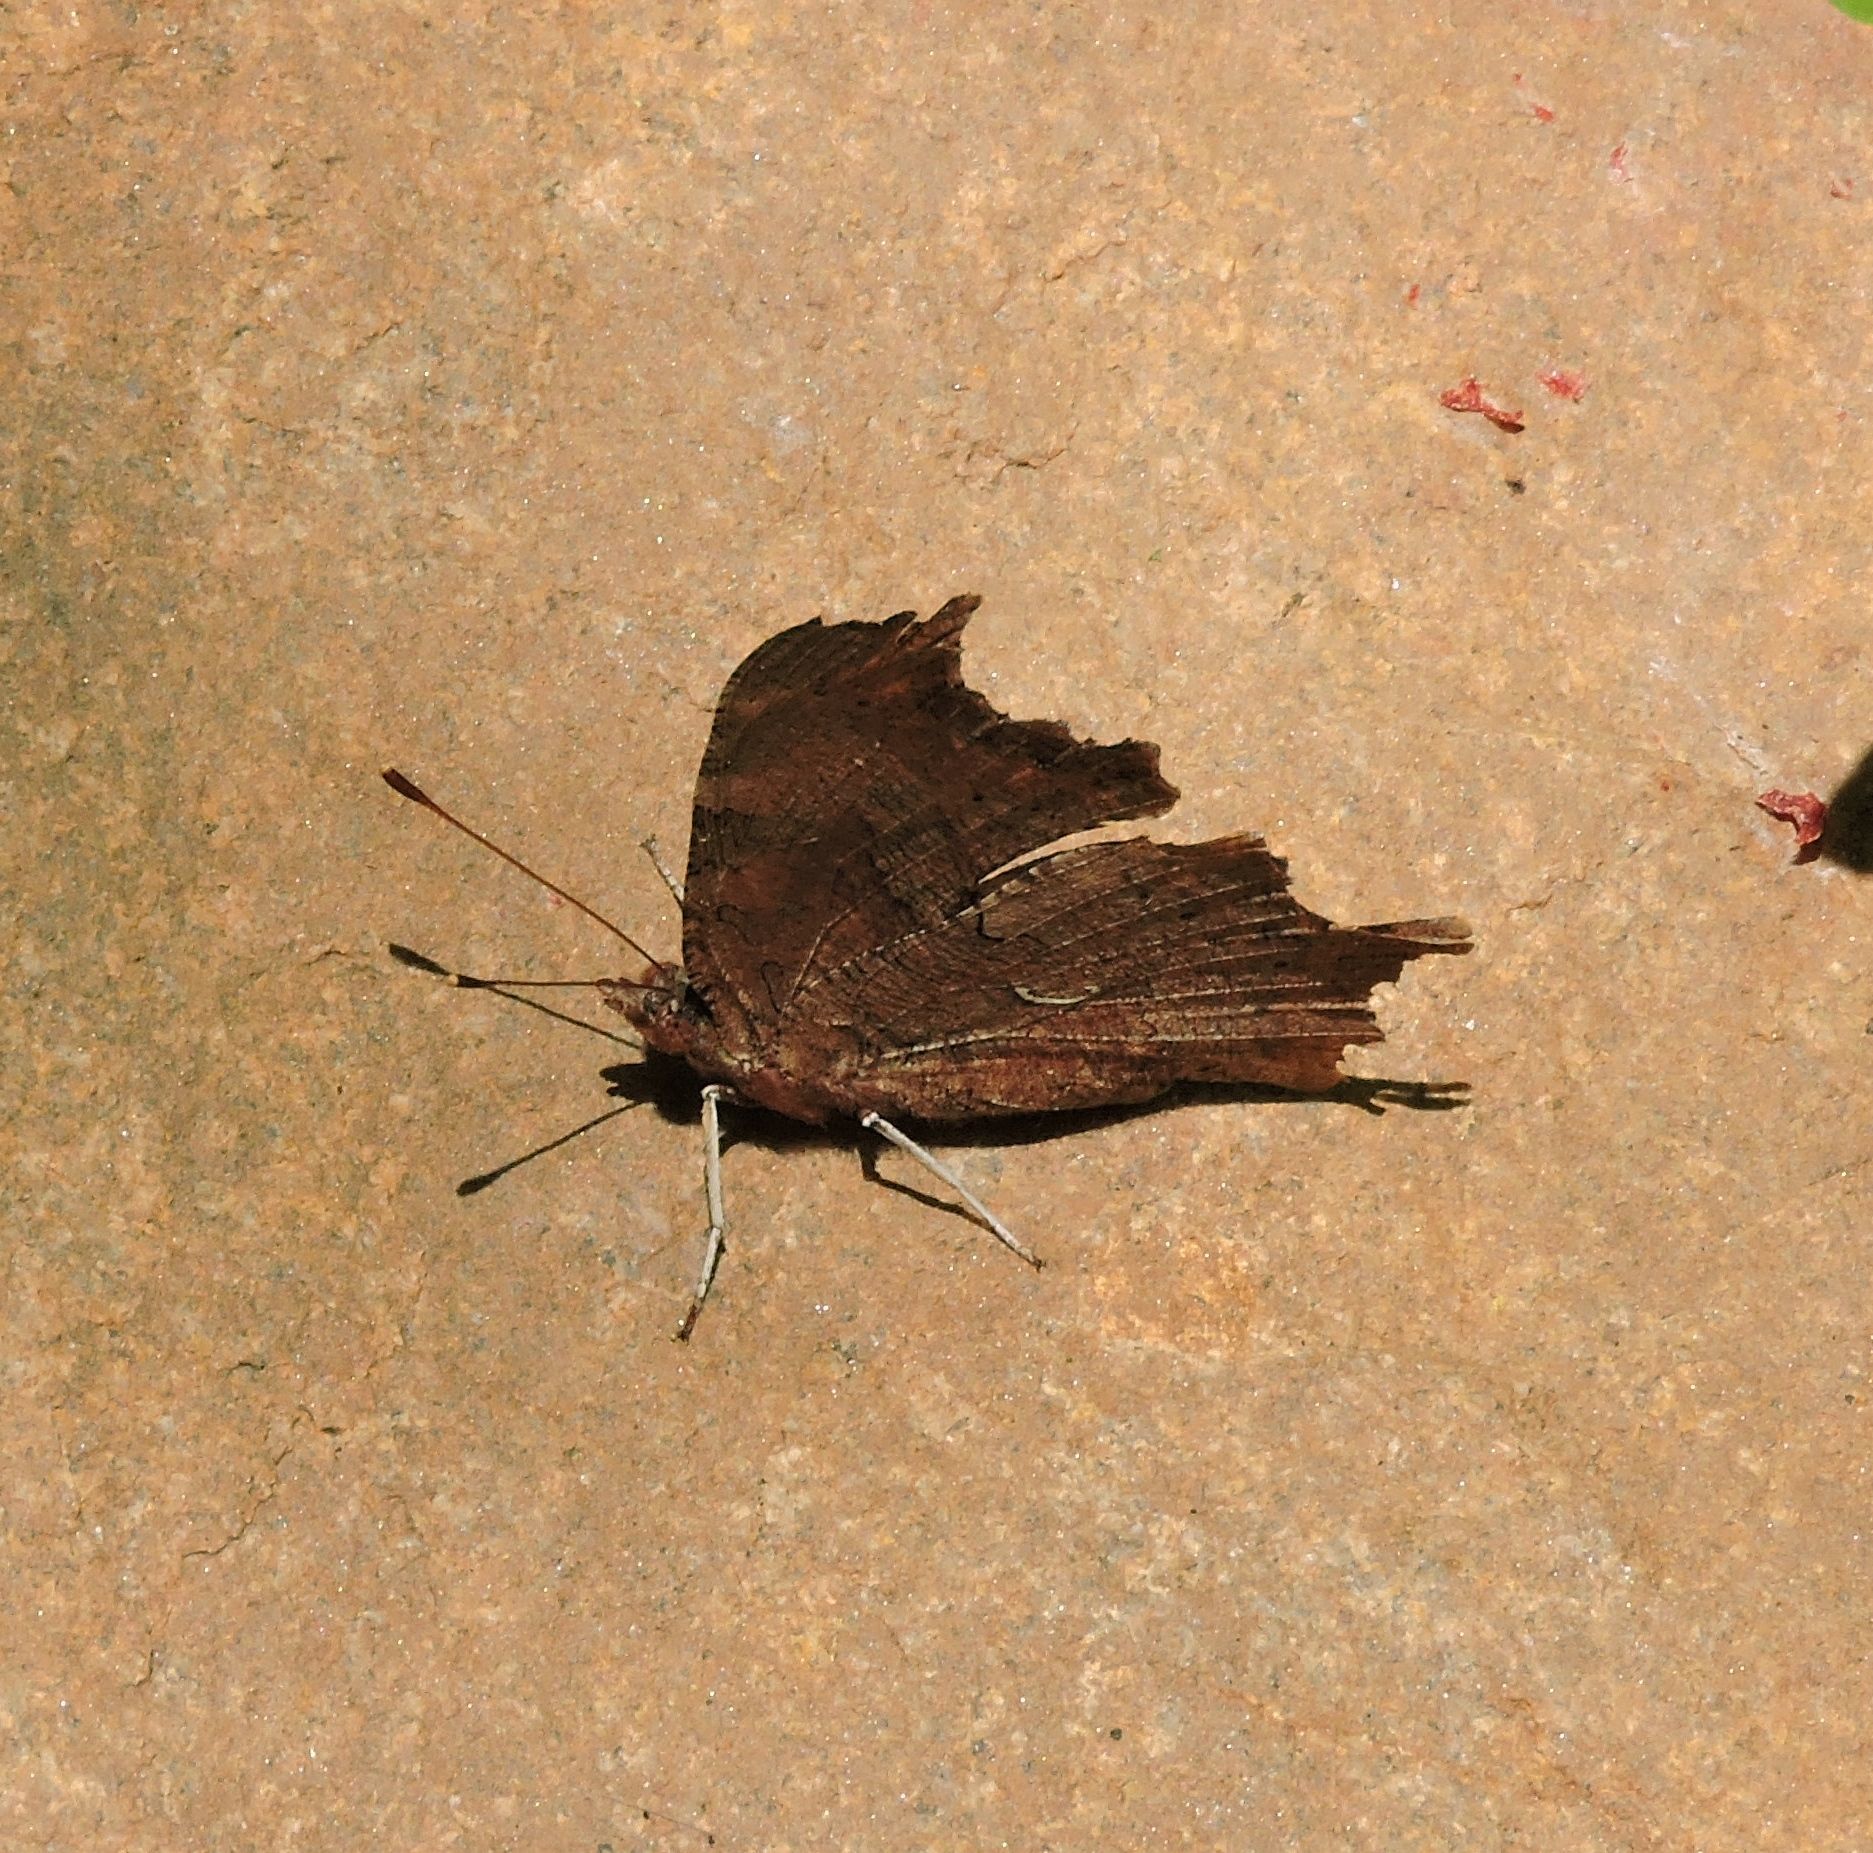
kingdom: Animalia
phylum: Arthropoda
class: Insecta
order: Lepidoptera
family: Nymphalidae
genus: Polygonia
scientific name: Polygonia comma
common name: Eastern comma
